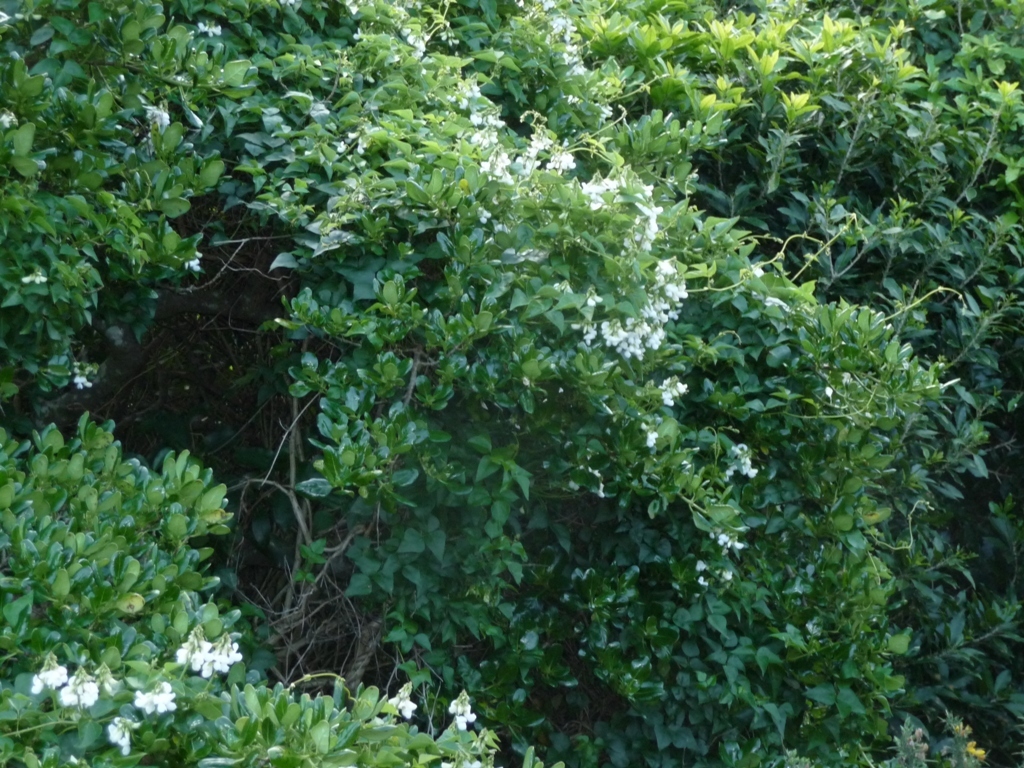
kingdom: Plantae
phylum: Tracheophyta
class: Magnoliopsida
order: Fabales
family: Fabaceae
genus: Dipogon
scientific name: Dipogon lignosus
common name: Okie bean
